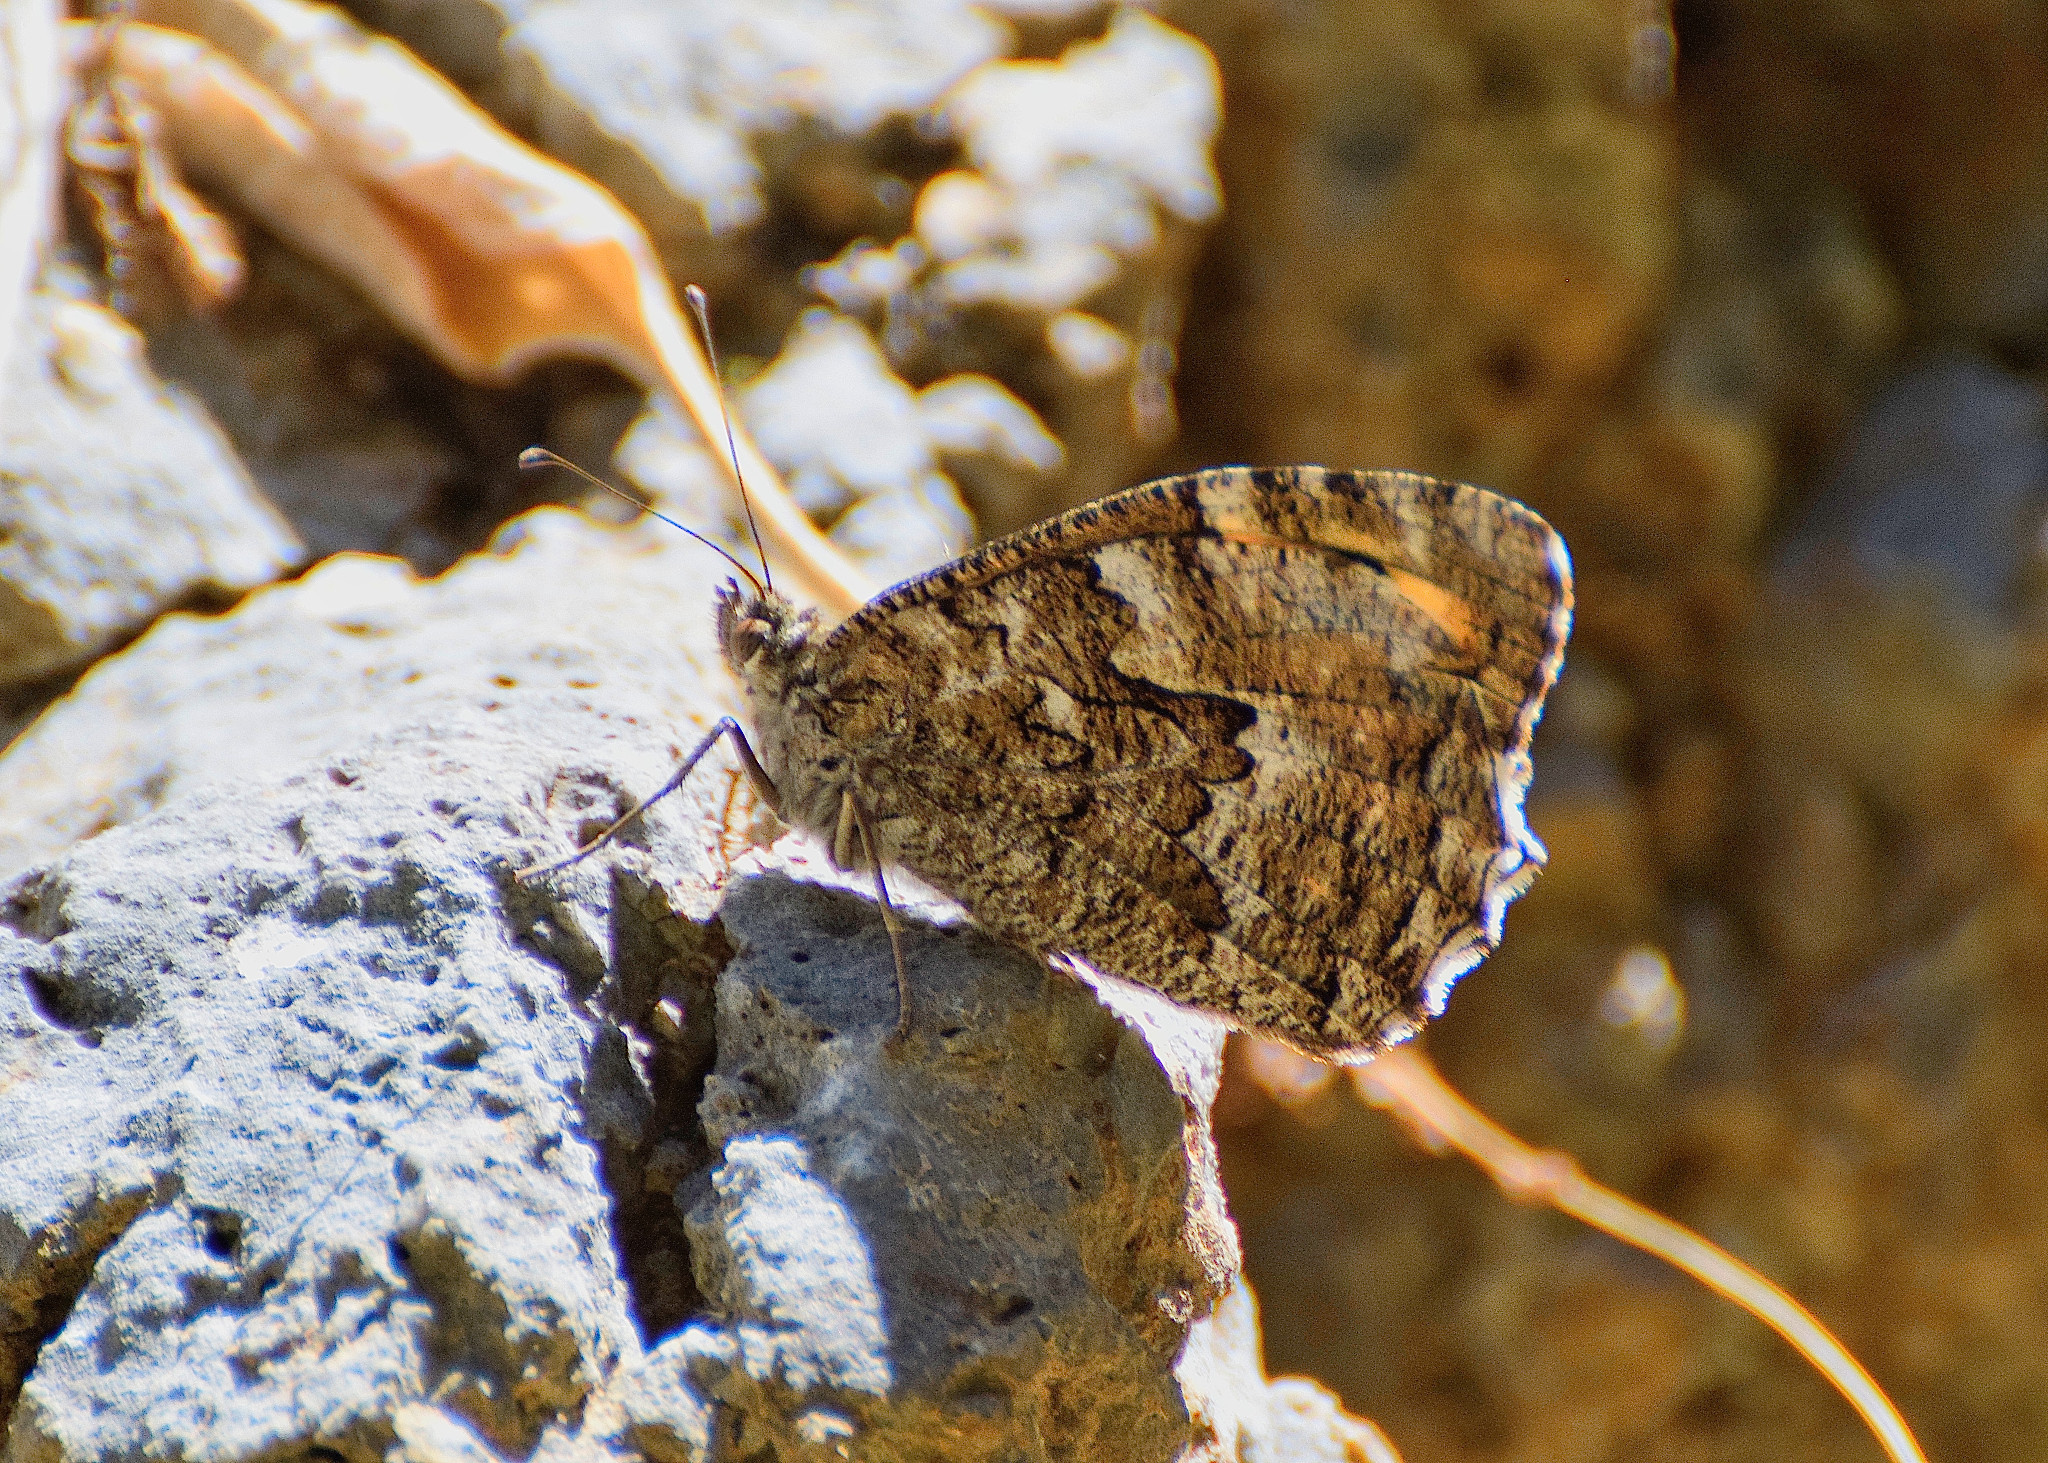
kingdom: Animalia
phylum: Arthropoda
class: Insecta
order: Lepidoptera
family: Nymphalidae
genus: Hipparchia
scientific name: Hipparchia cretica
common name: Cretan grayling
